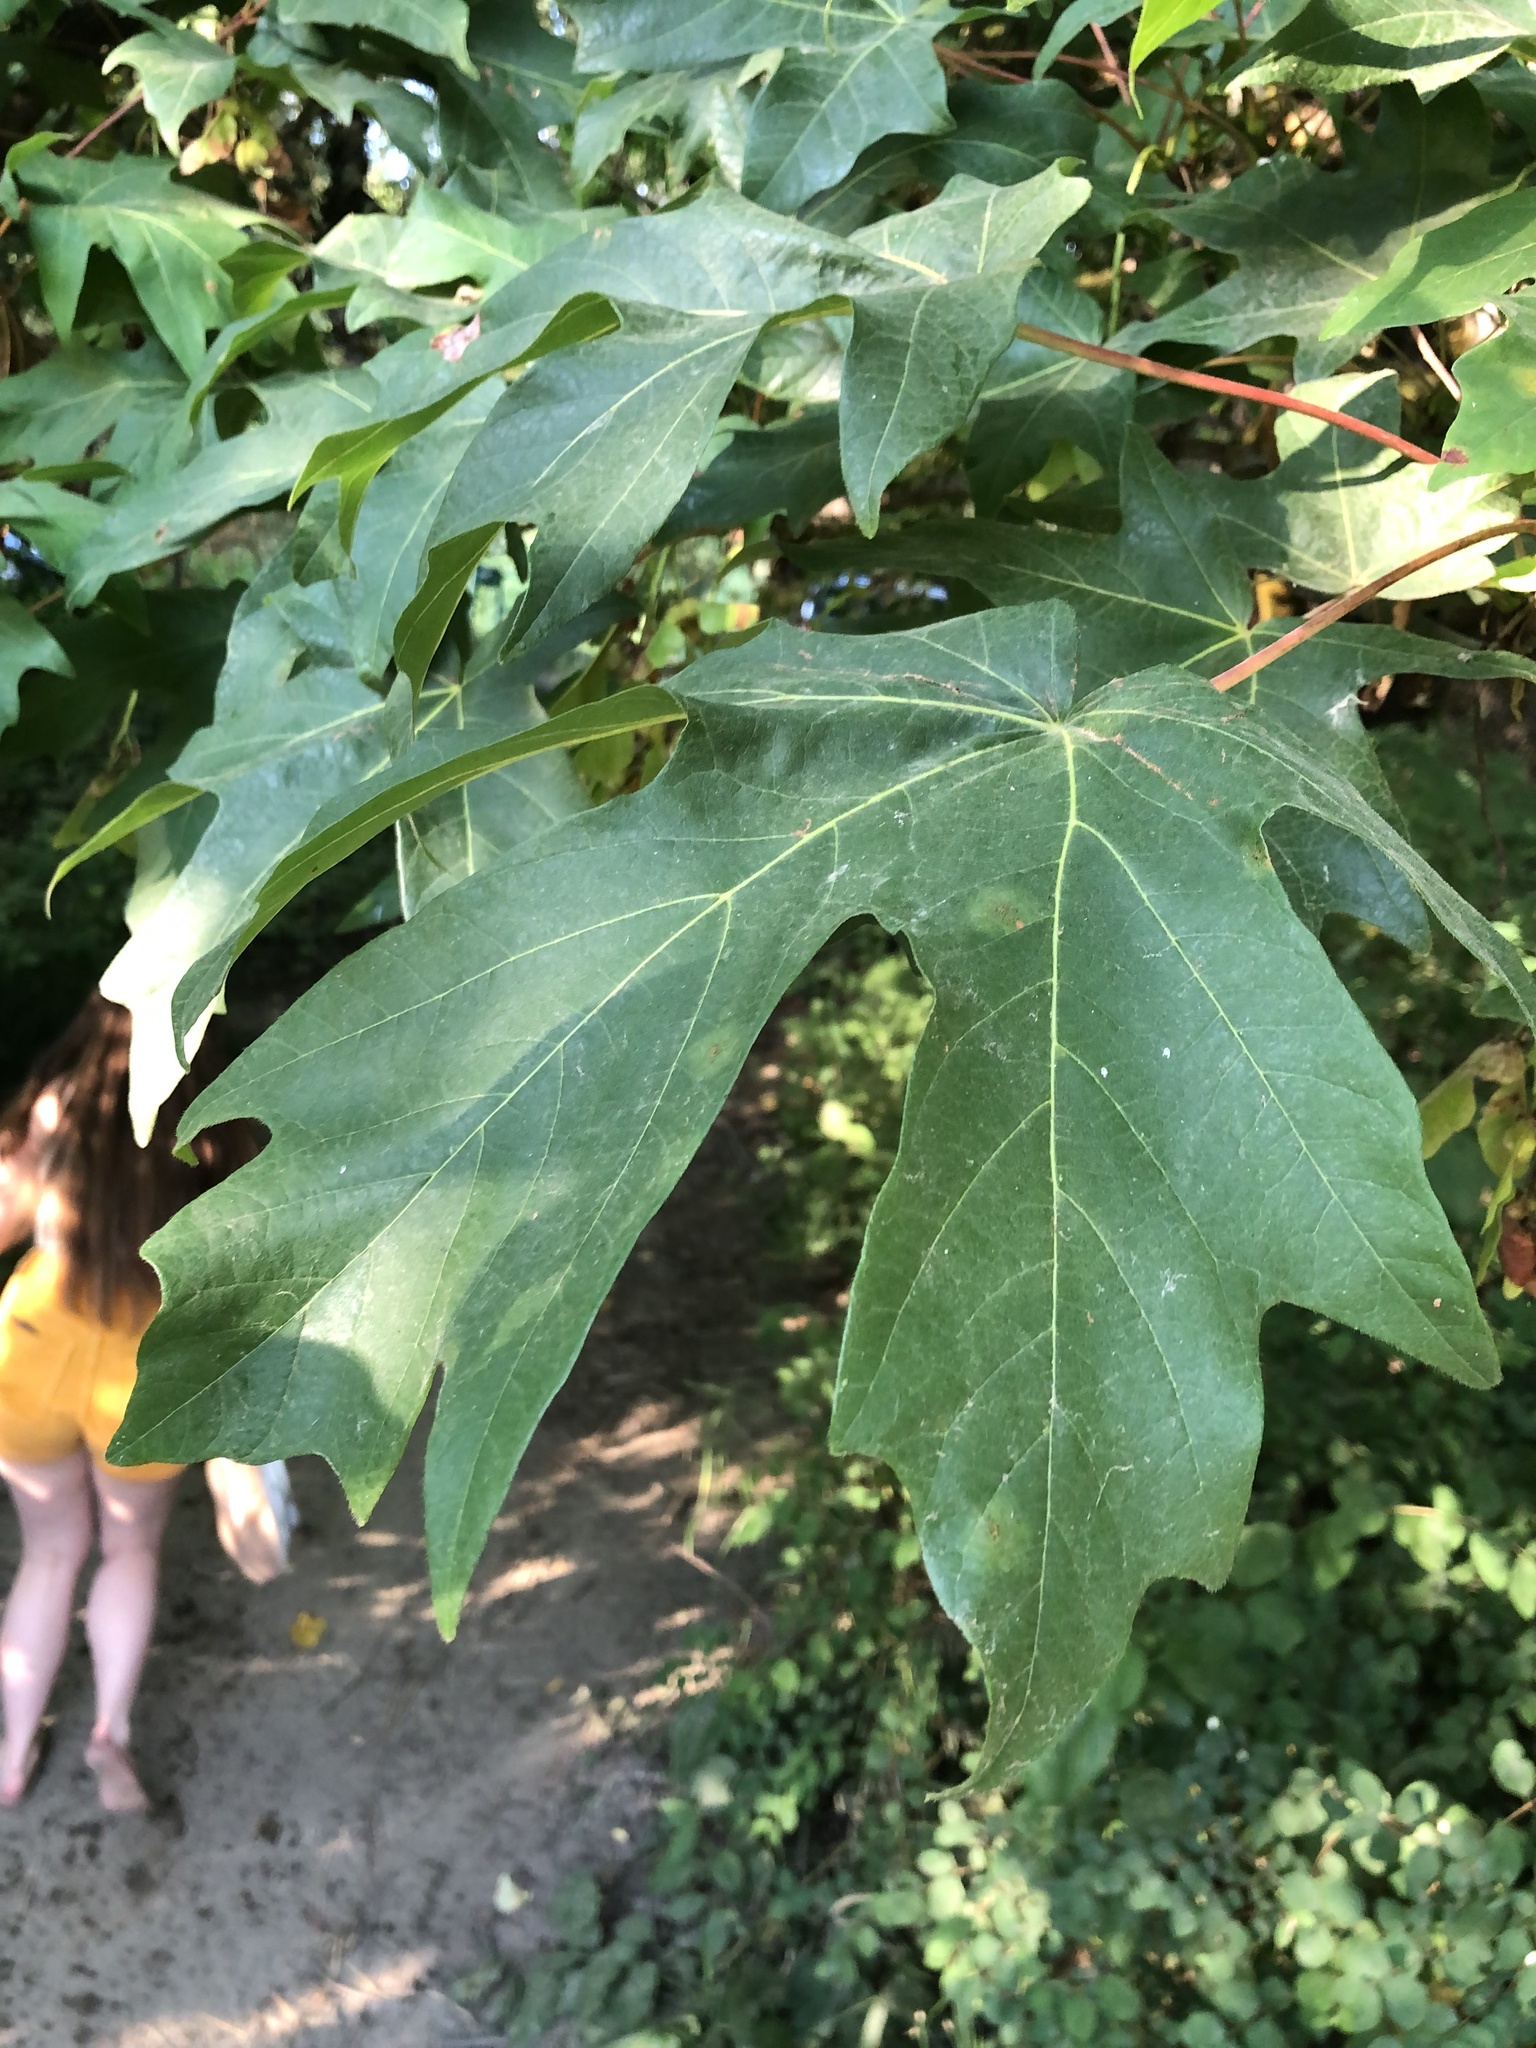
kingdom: Plantae
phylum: Tracheophyta
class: Magnoliopsida
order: Sapindales
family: Sapindaceae
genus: Acer
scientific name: Acer macrophyllum
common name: Oregon maple
